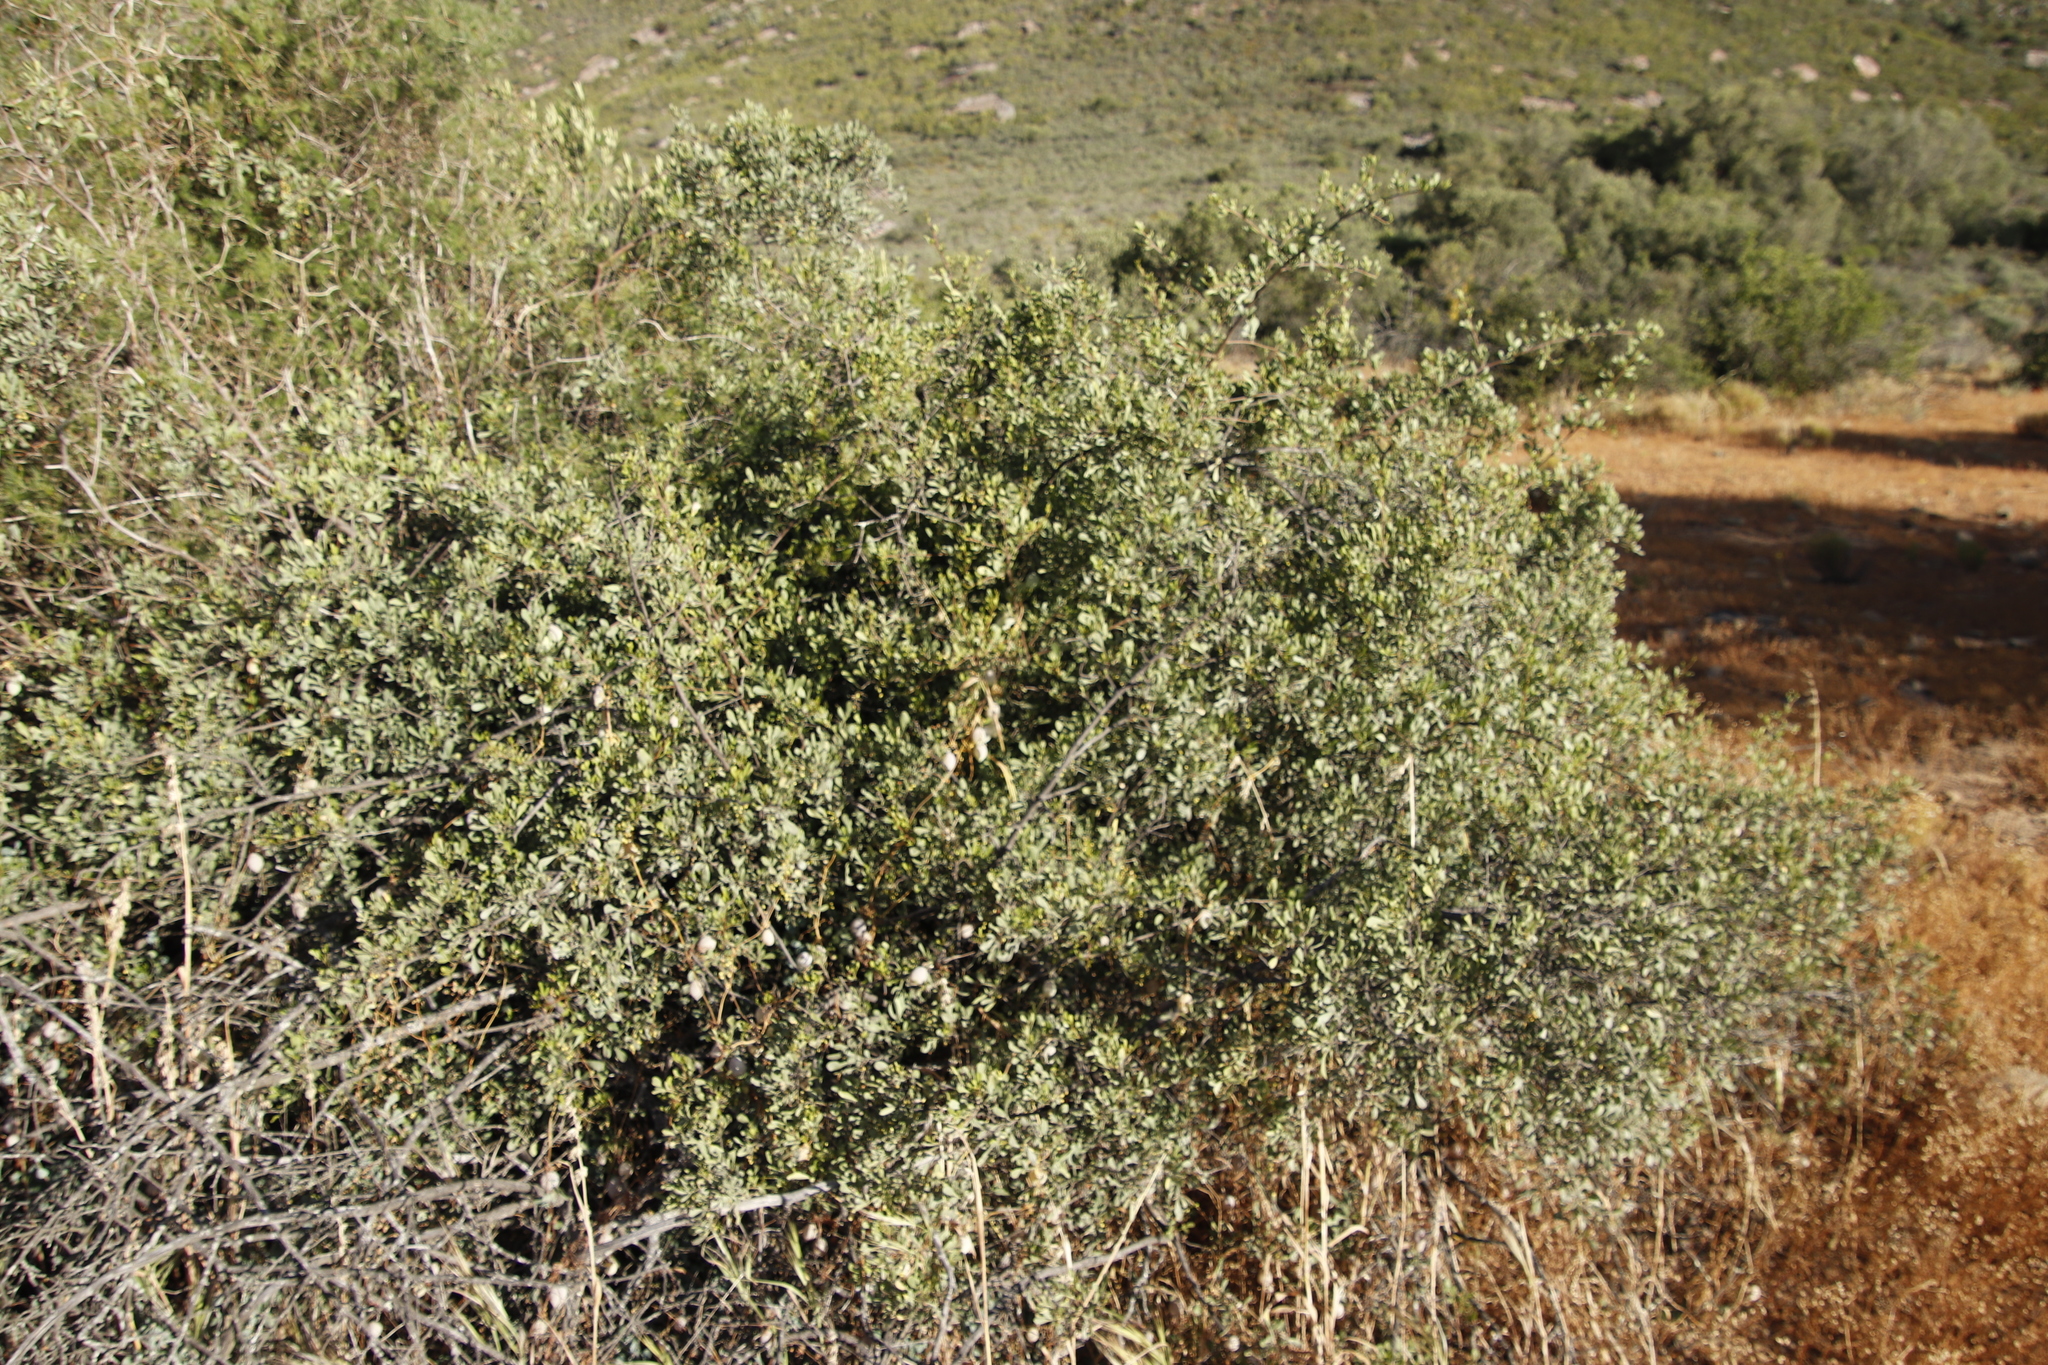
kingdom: Plantae
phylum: Tracheophyta
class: Magnoliopsida
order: Sapindales
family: Anacardiaceae
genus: Searsia
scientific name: Searsia undulata
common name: Namaqua kunibush
